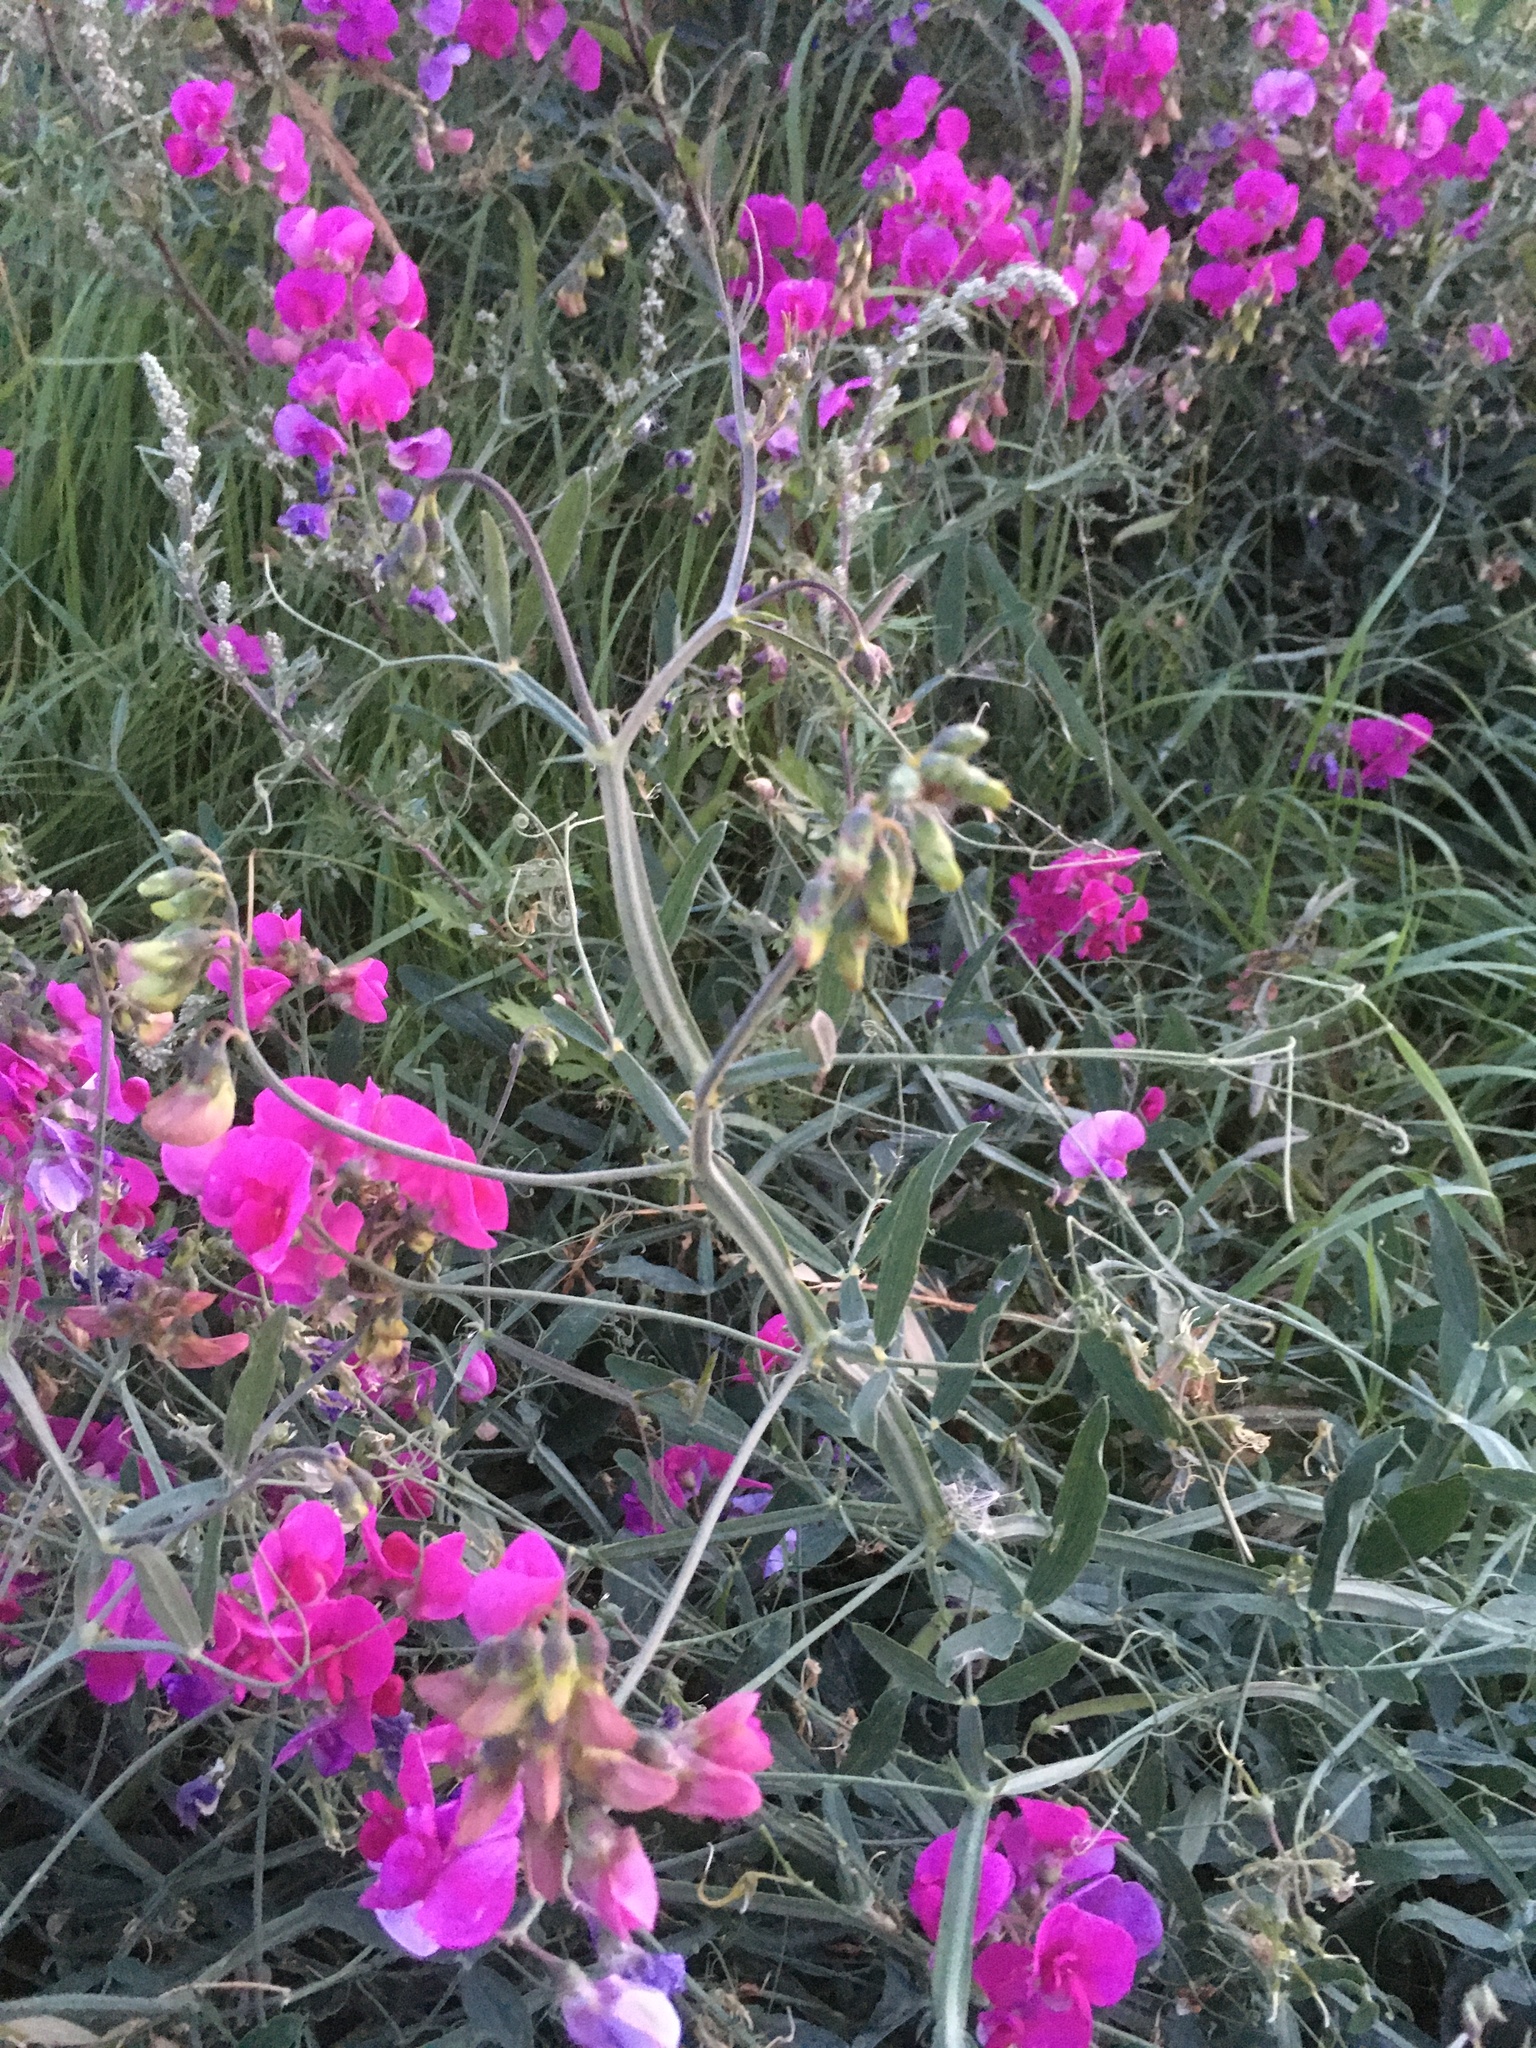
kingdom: Plantae
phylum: Tracheophyta
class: Magnoliopsida
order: Fabales
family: Fabaceae
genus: Lathyrus
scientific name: Lathyrus latifolius
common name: Perennial pea
